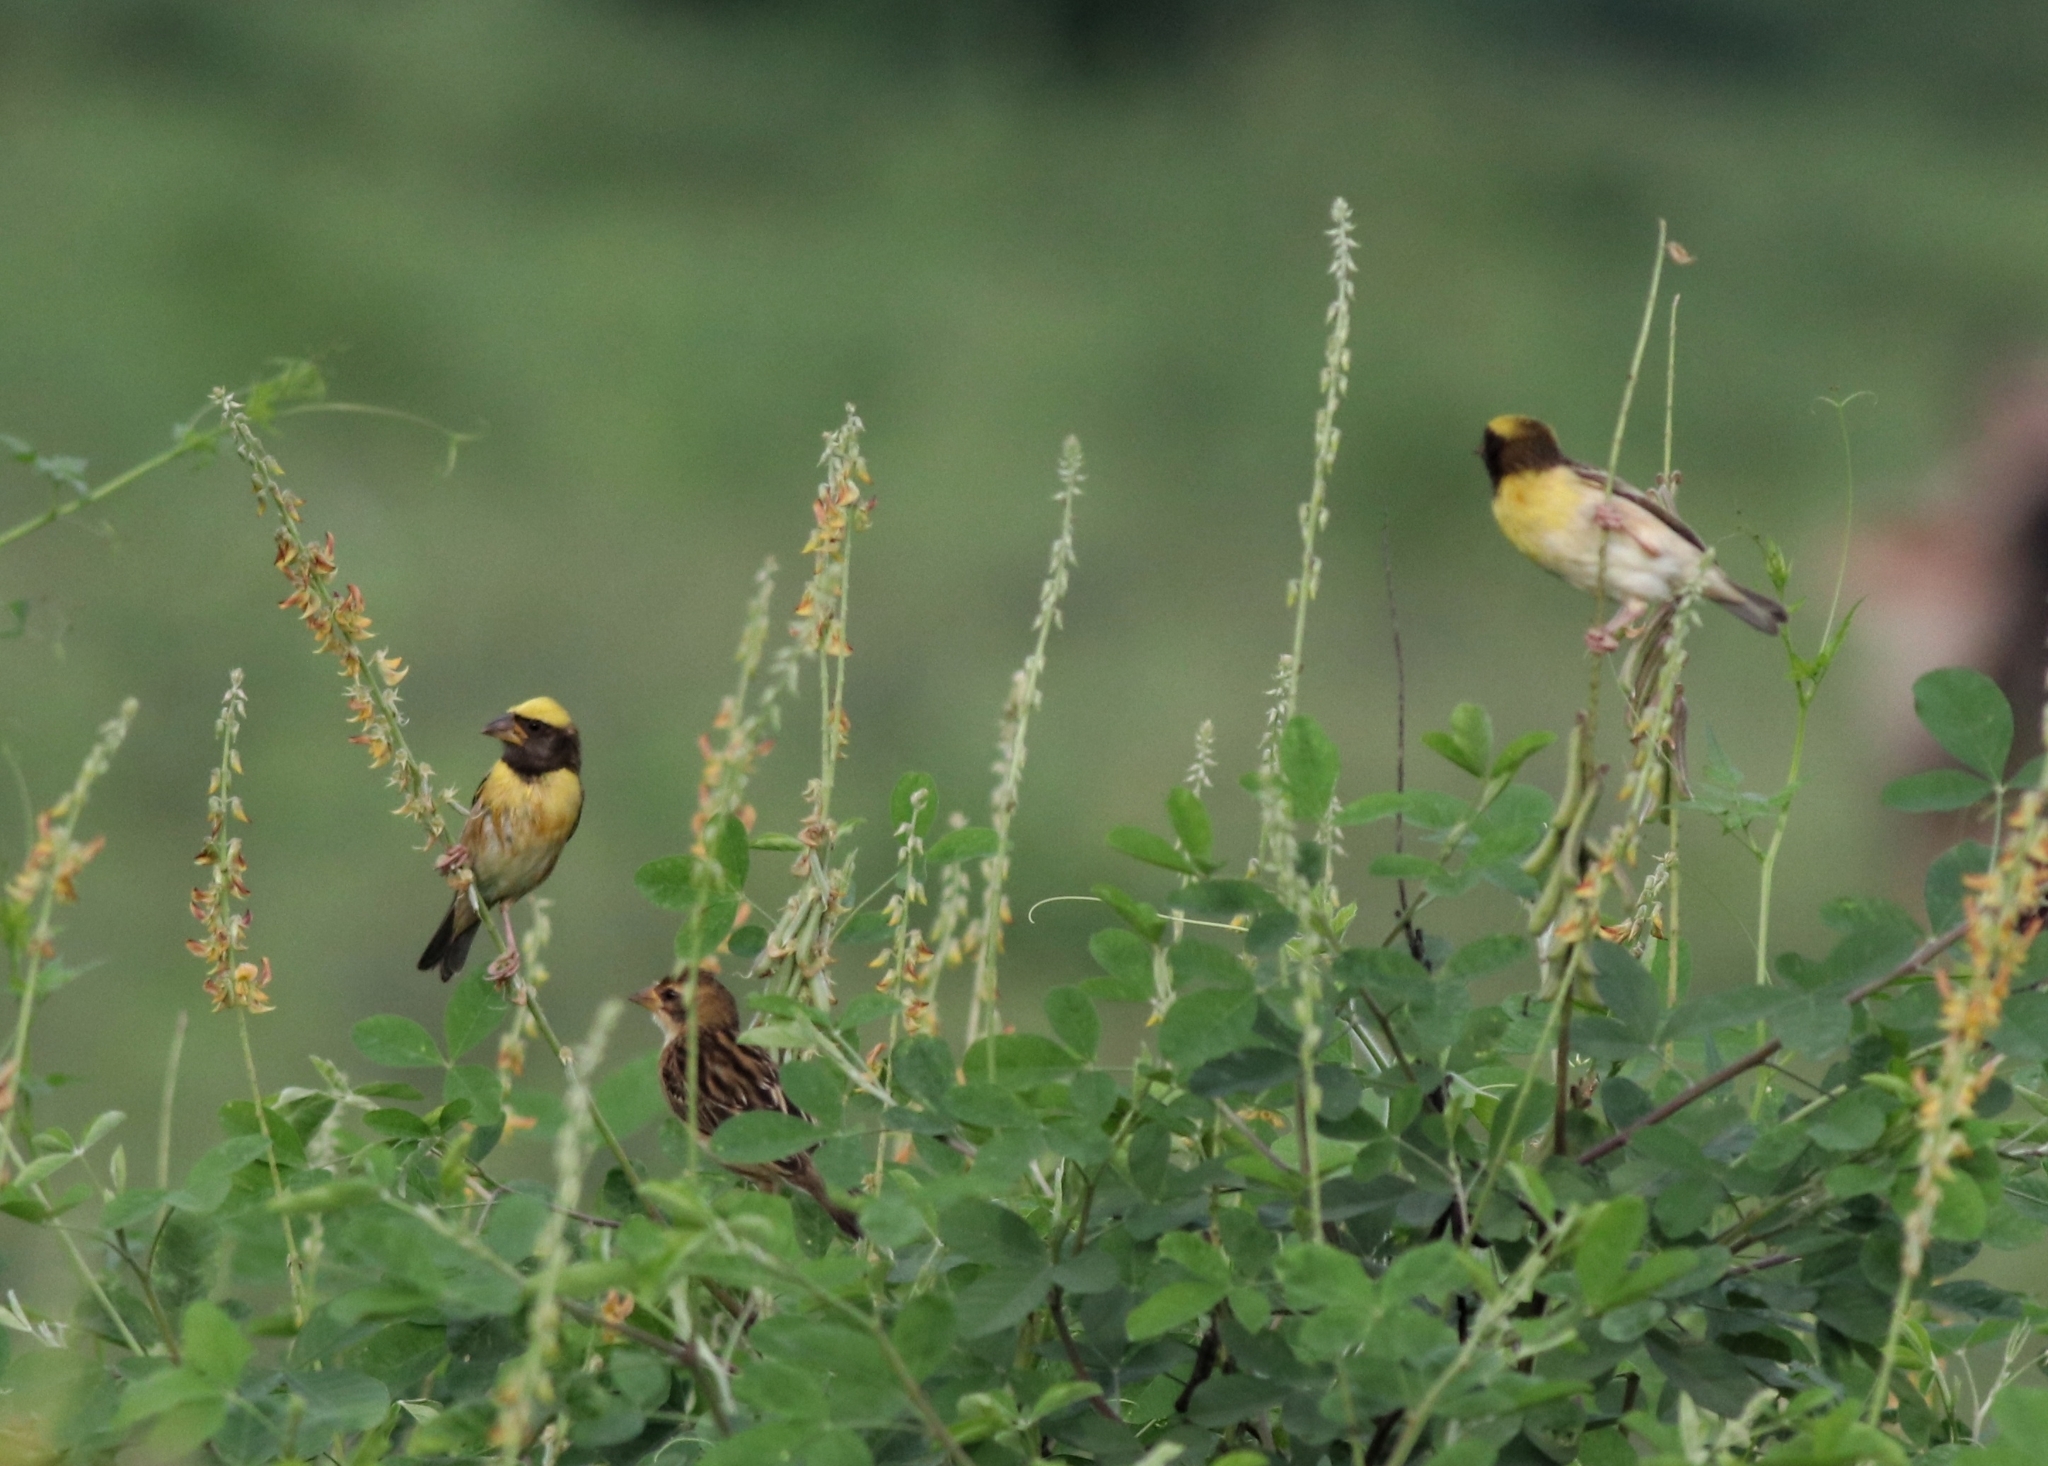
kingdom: Animalia
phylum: Chordata
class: Aves
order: Passeriformes
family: Ploceidae
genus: Ploceus
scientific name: Ploceus philippinus
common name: Baya weaver
